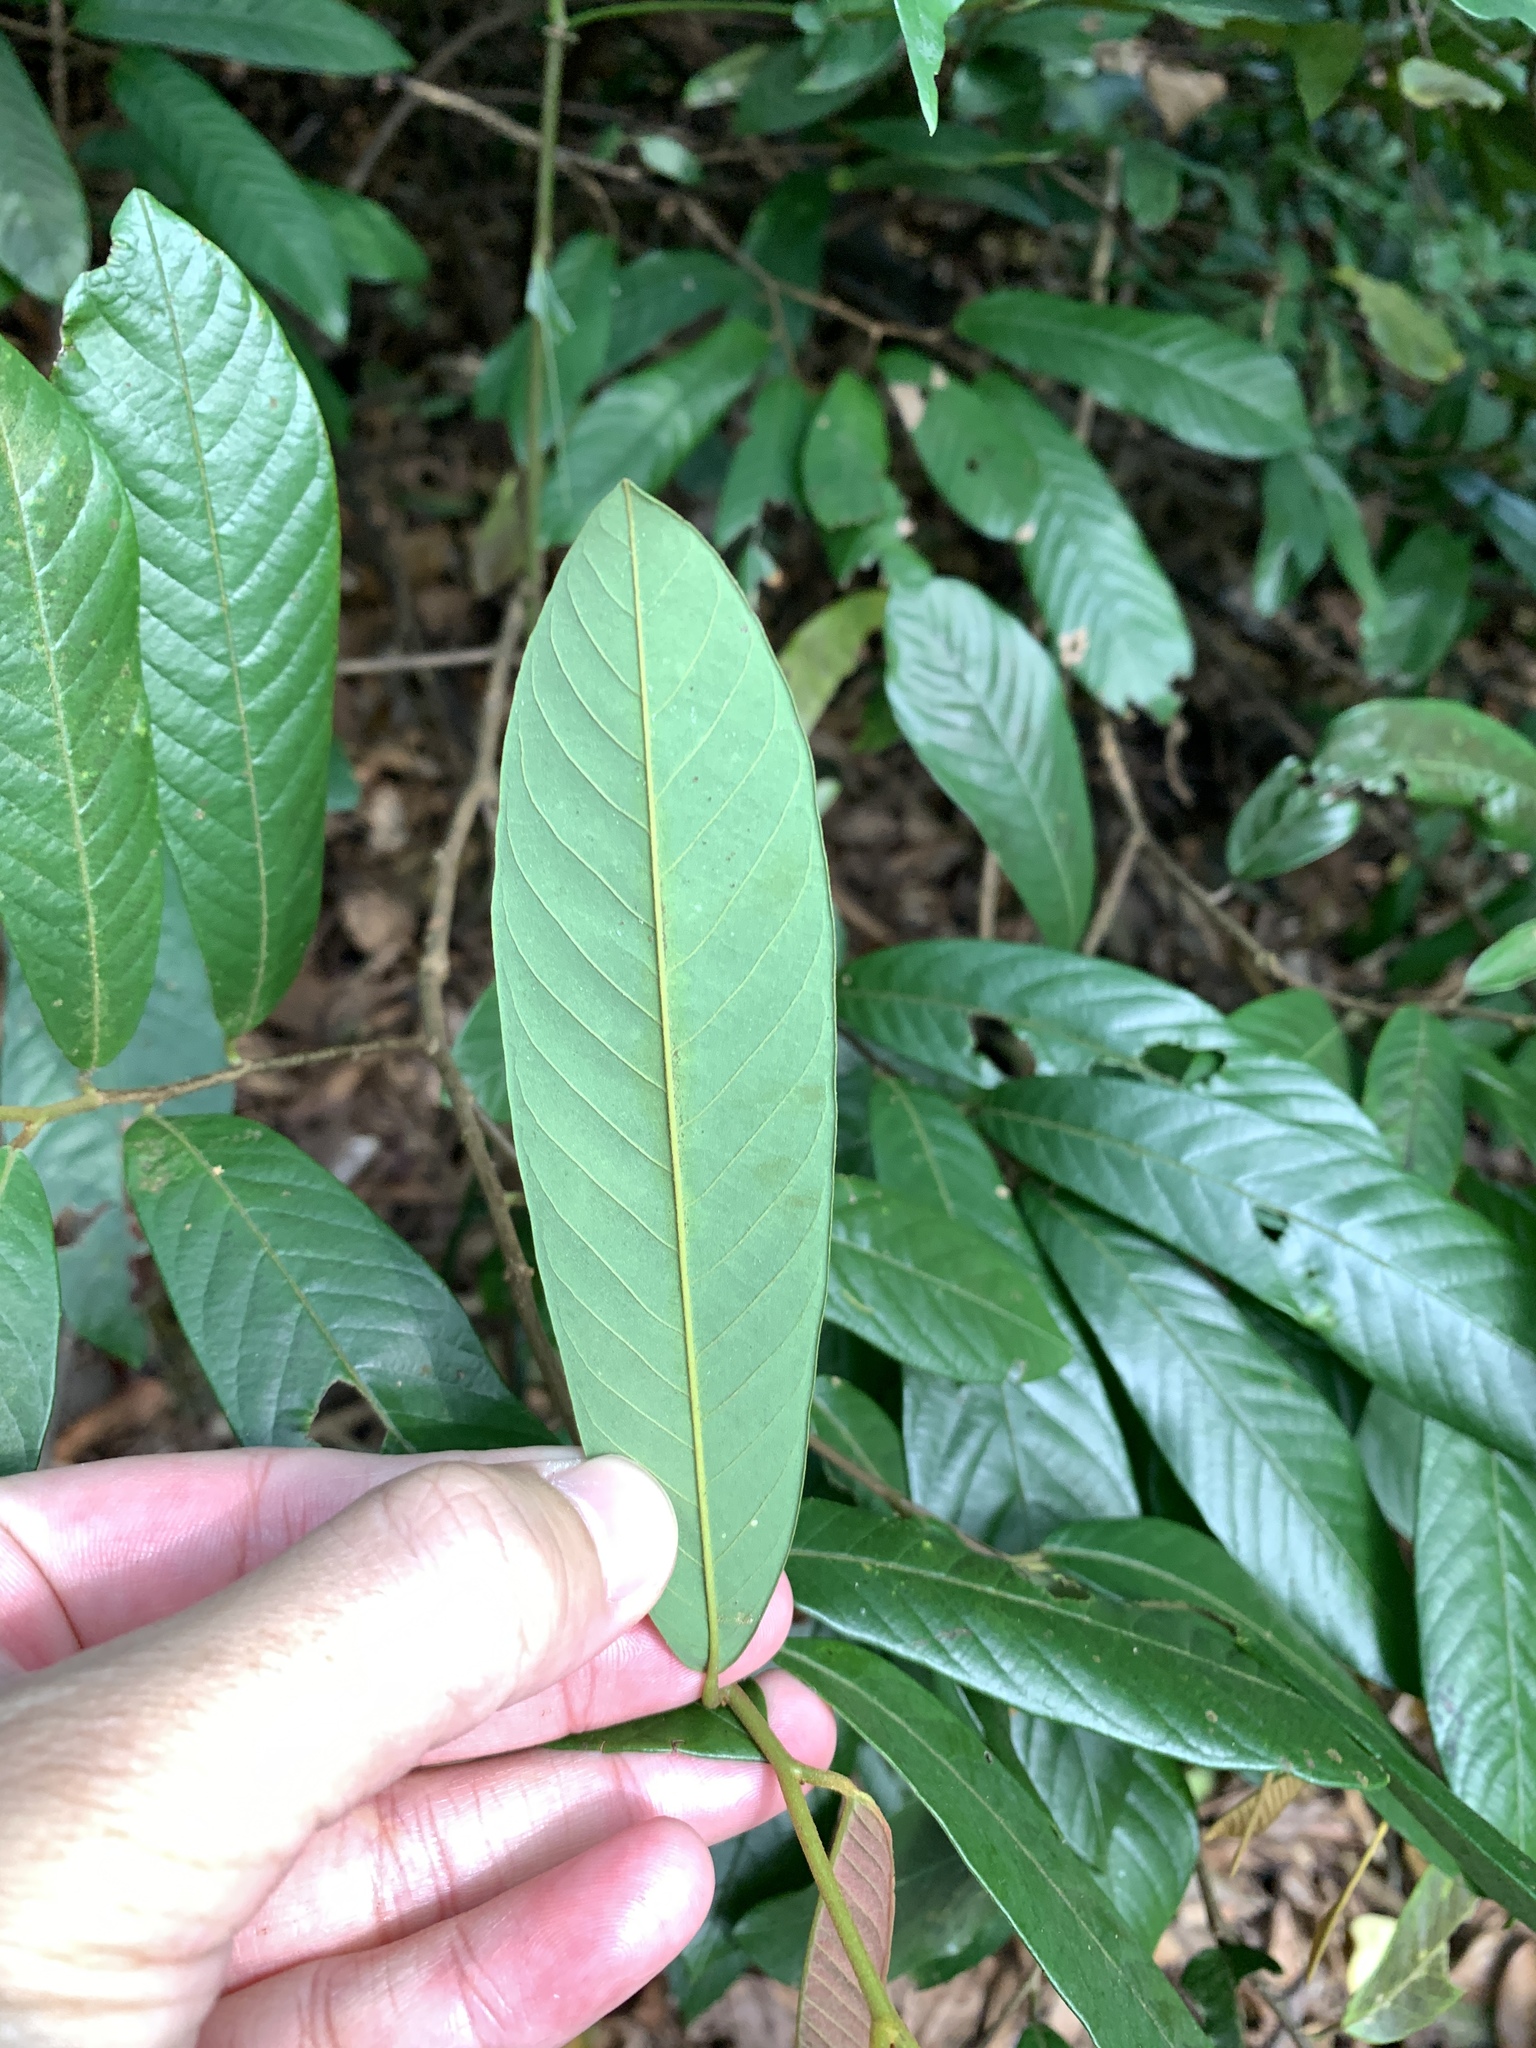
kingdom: Plantae
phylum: Tracheophyta
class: Magnoliopsida
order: Magnoliales
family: Annonaceae
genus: Fissistigma
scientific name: Fissistigma oldhamii
